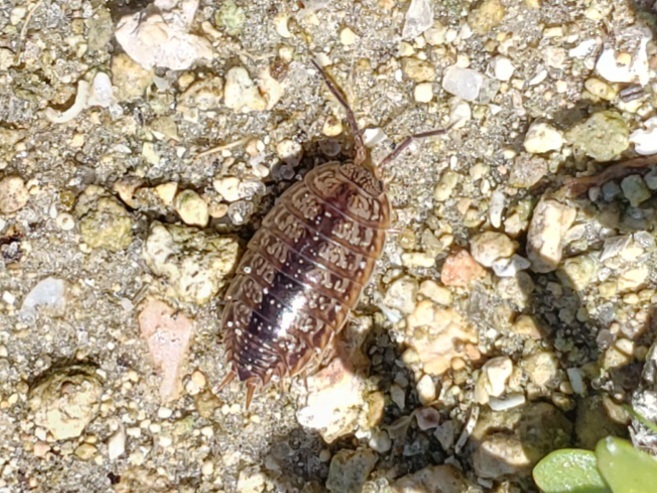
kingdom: Animalia
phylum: Arthropoda
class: Malacostraca
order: Isopoda
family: Porcellionidae
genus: Porcellionides
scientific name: Porcellionides virgatus
